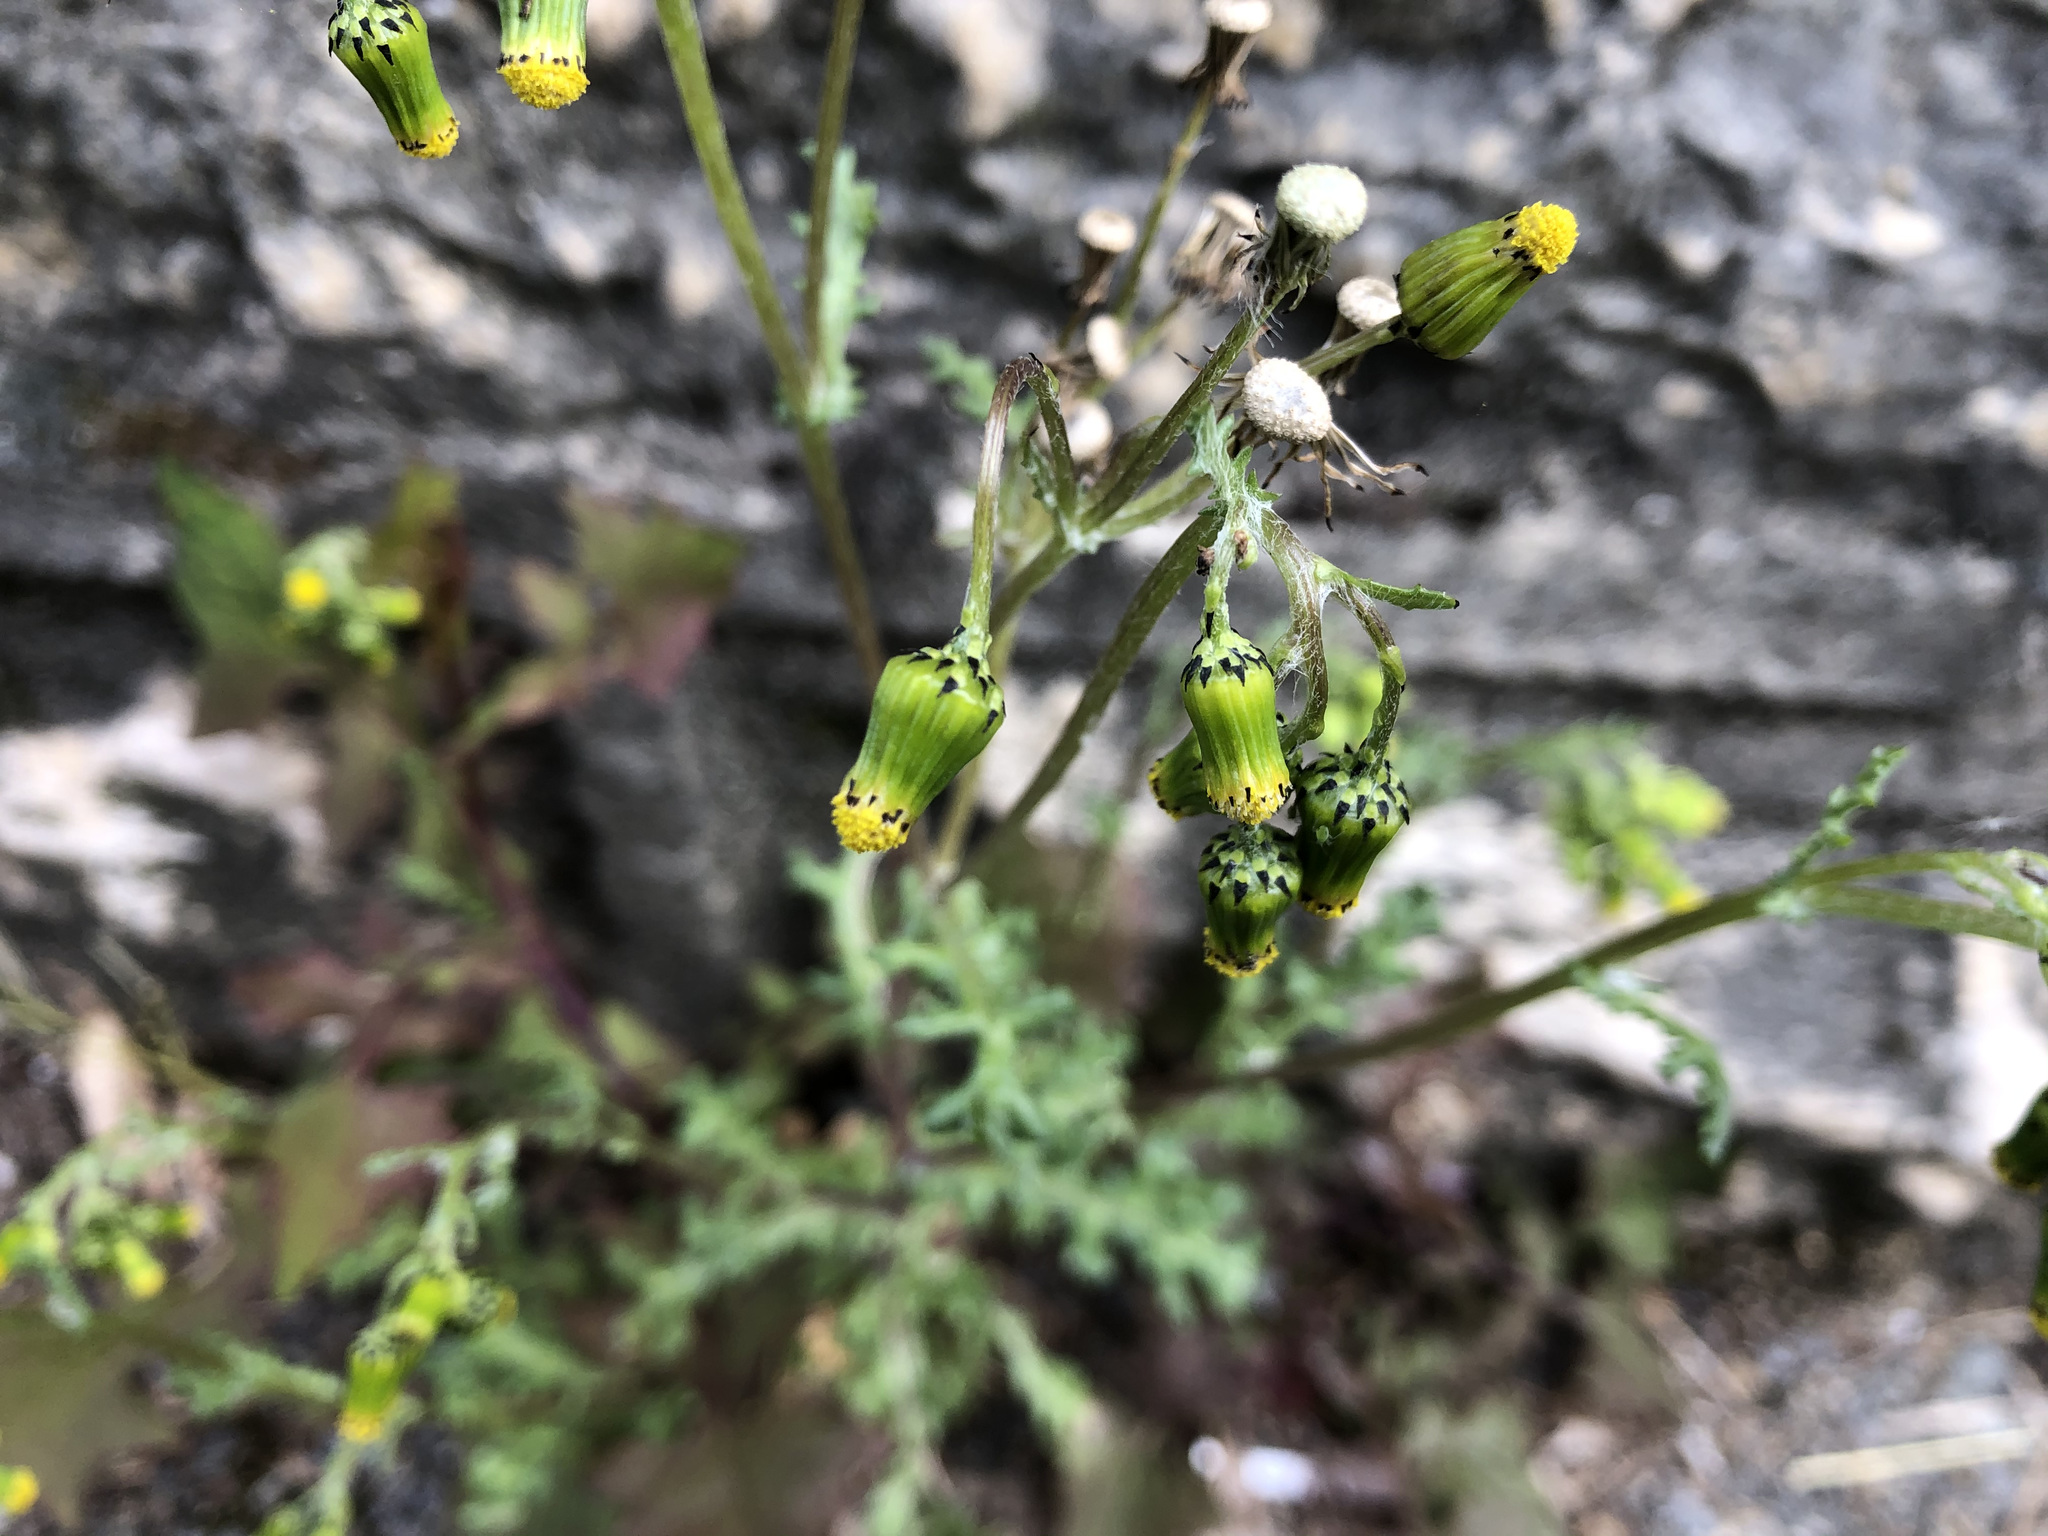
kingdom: Plantae
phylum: Tracheophyta
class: Magnoliopsida
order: Asterales
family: Asteraceae
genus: Senecio
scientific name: Senecio vulgaris
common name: Old-man-in-the-spring
